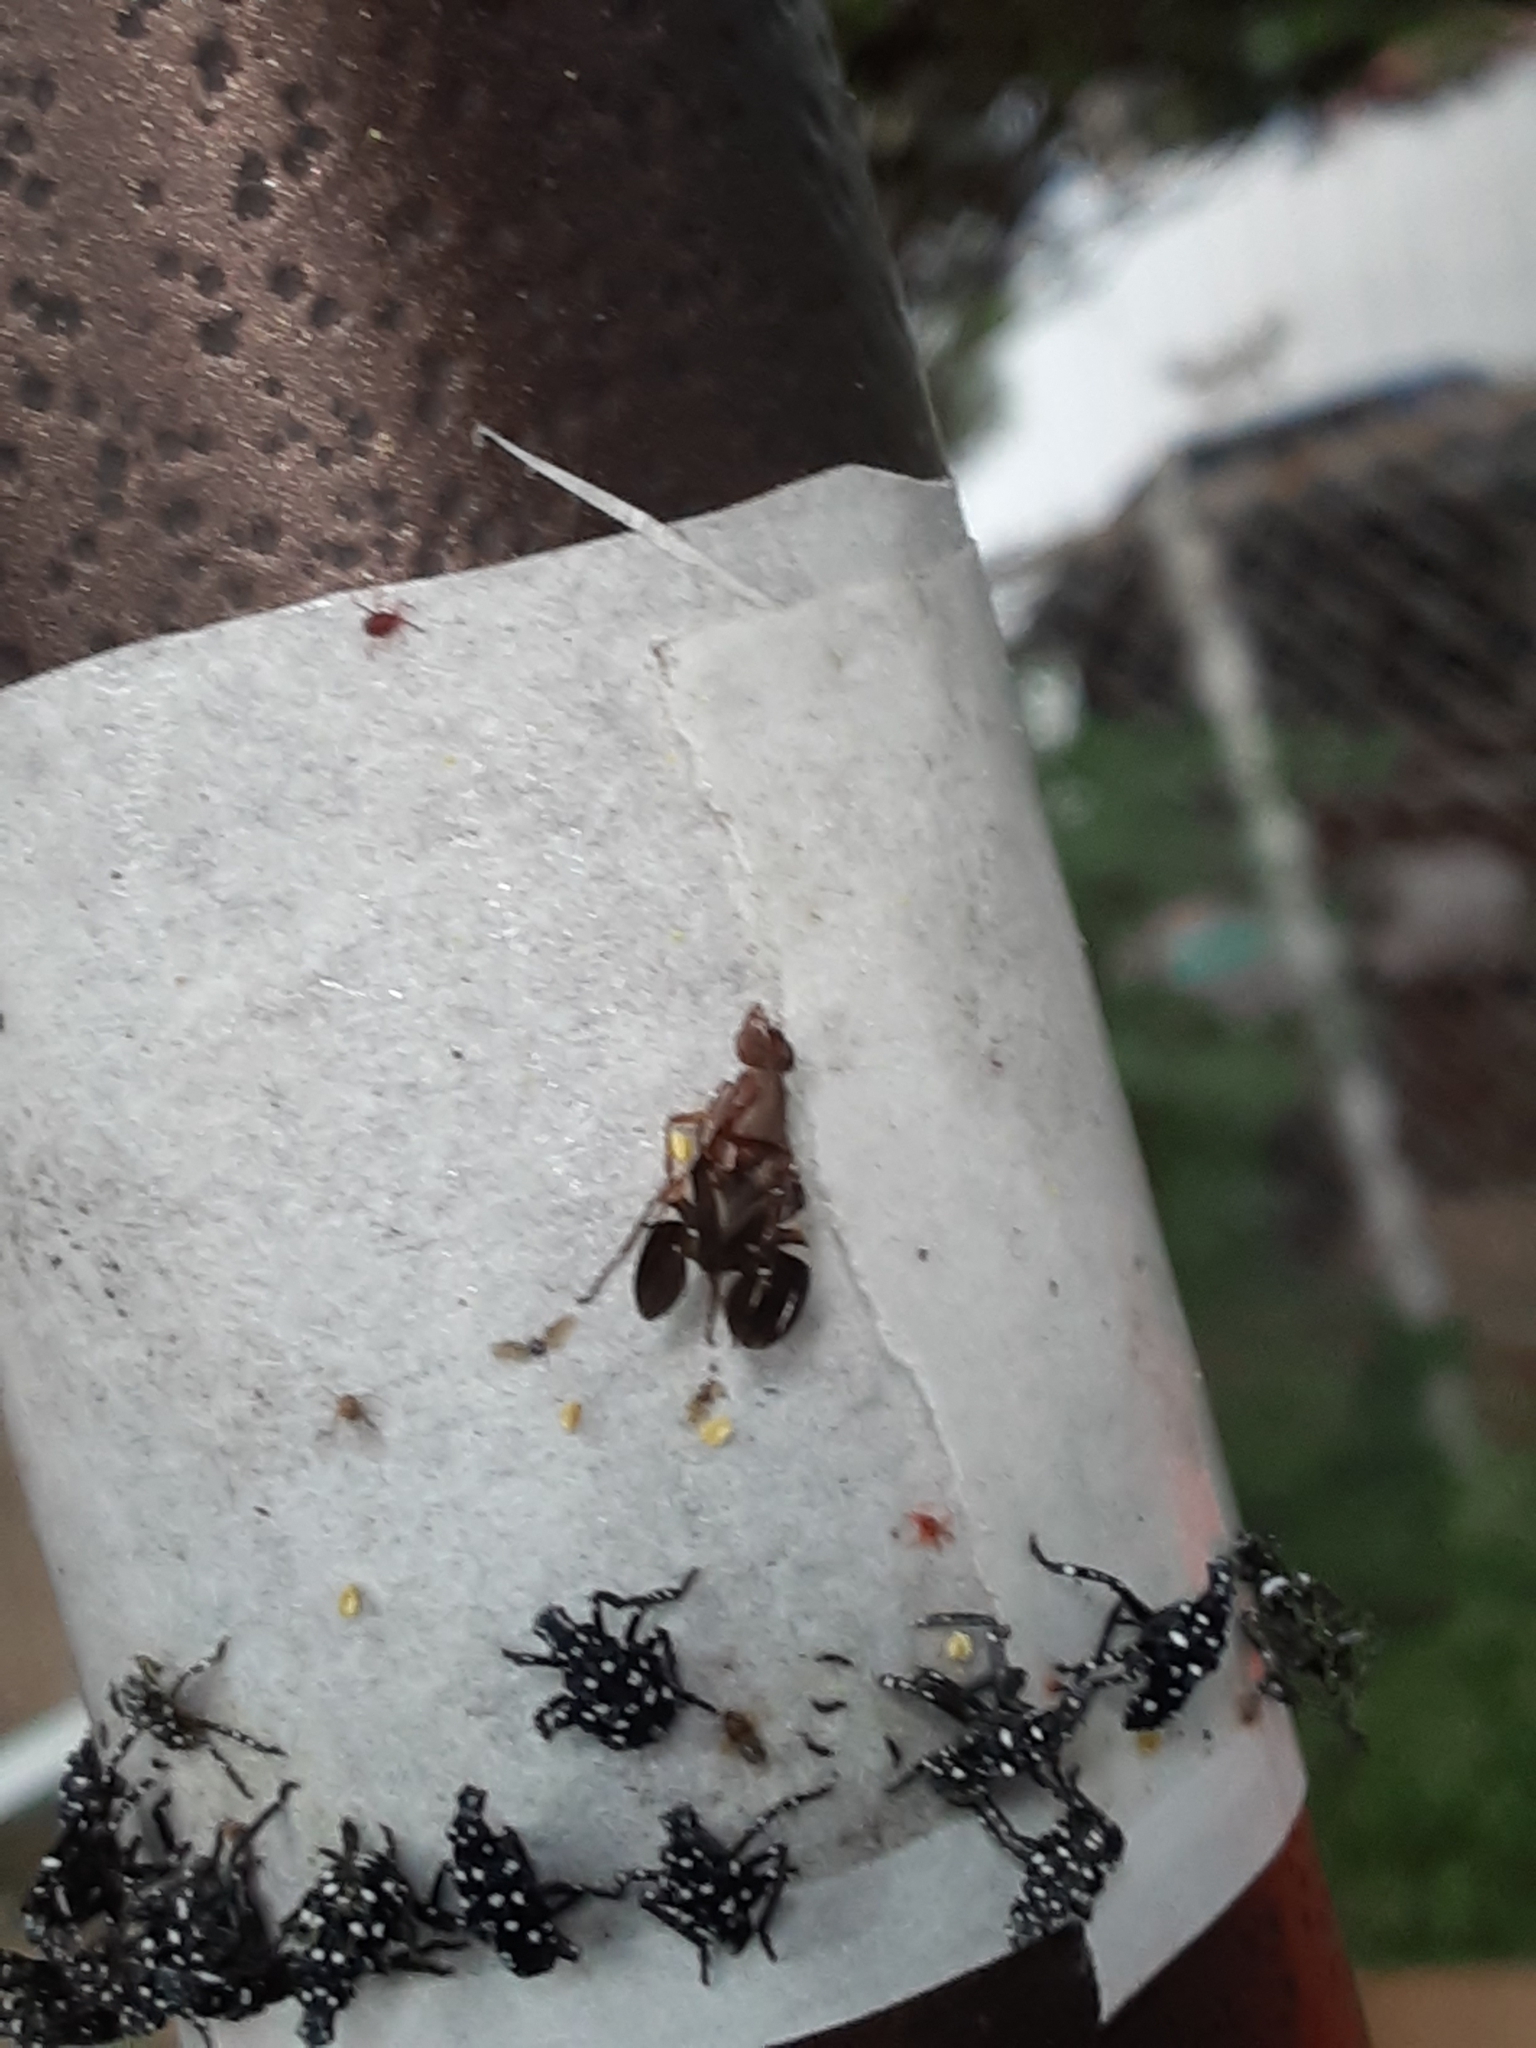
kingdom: Animalia
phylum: Arthropoda
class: Insecta
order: Diptera
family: Ulidiidae
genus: Delphinia
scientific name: Delphinia picta
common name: Common picture-winged fly
